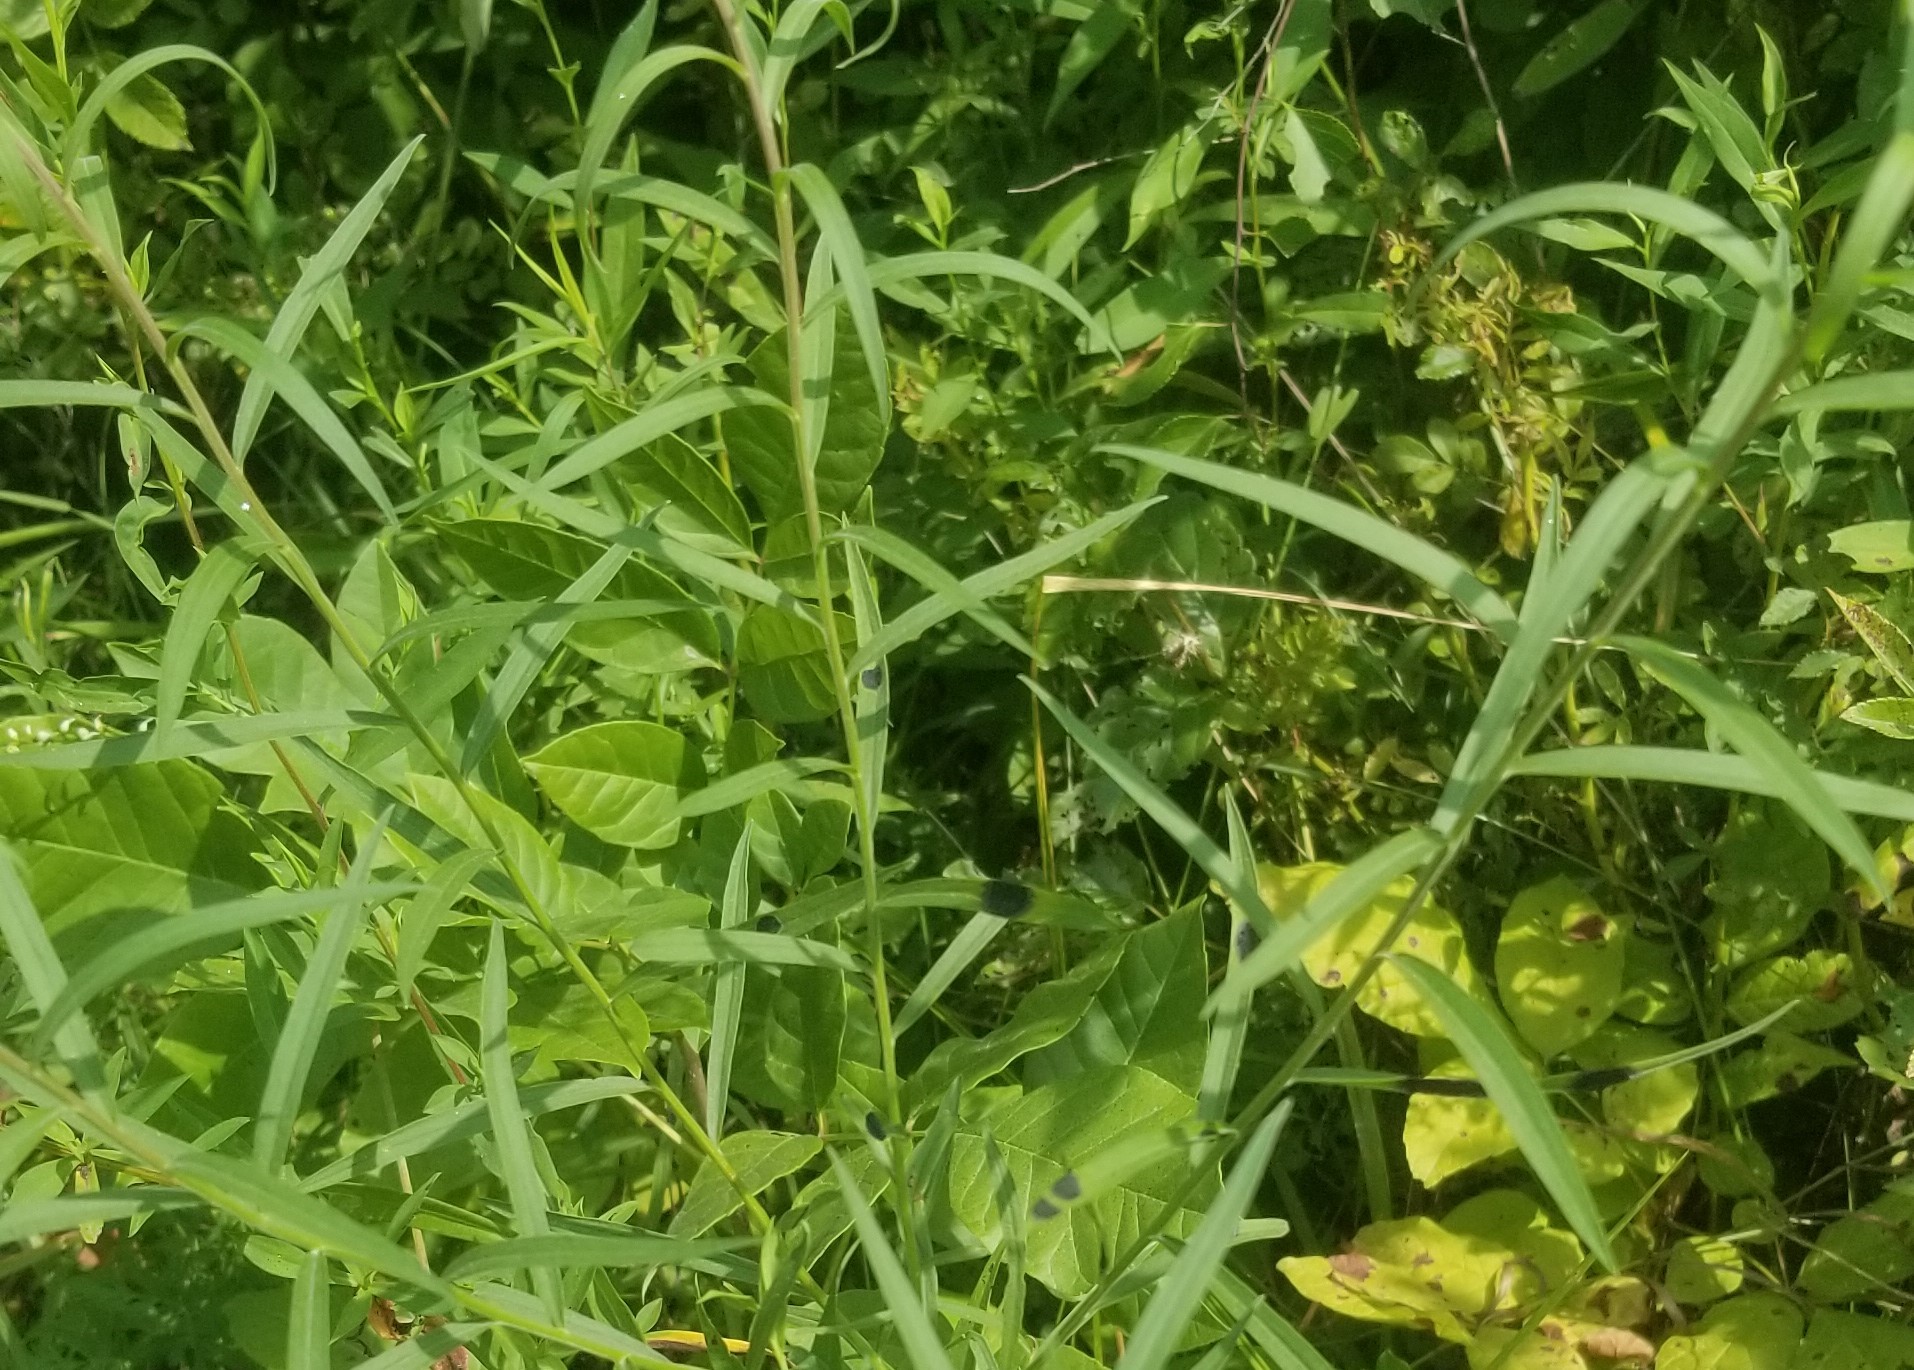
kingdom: Fungi
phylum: Ascomycota
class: Dothideomycetes
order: Botryosphaeriales
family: Botryosphaeriaceae
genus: Botryosphaeria
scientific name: Botryosphaeria dothidea
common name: Asteromyia gall midge fungus
